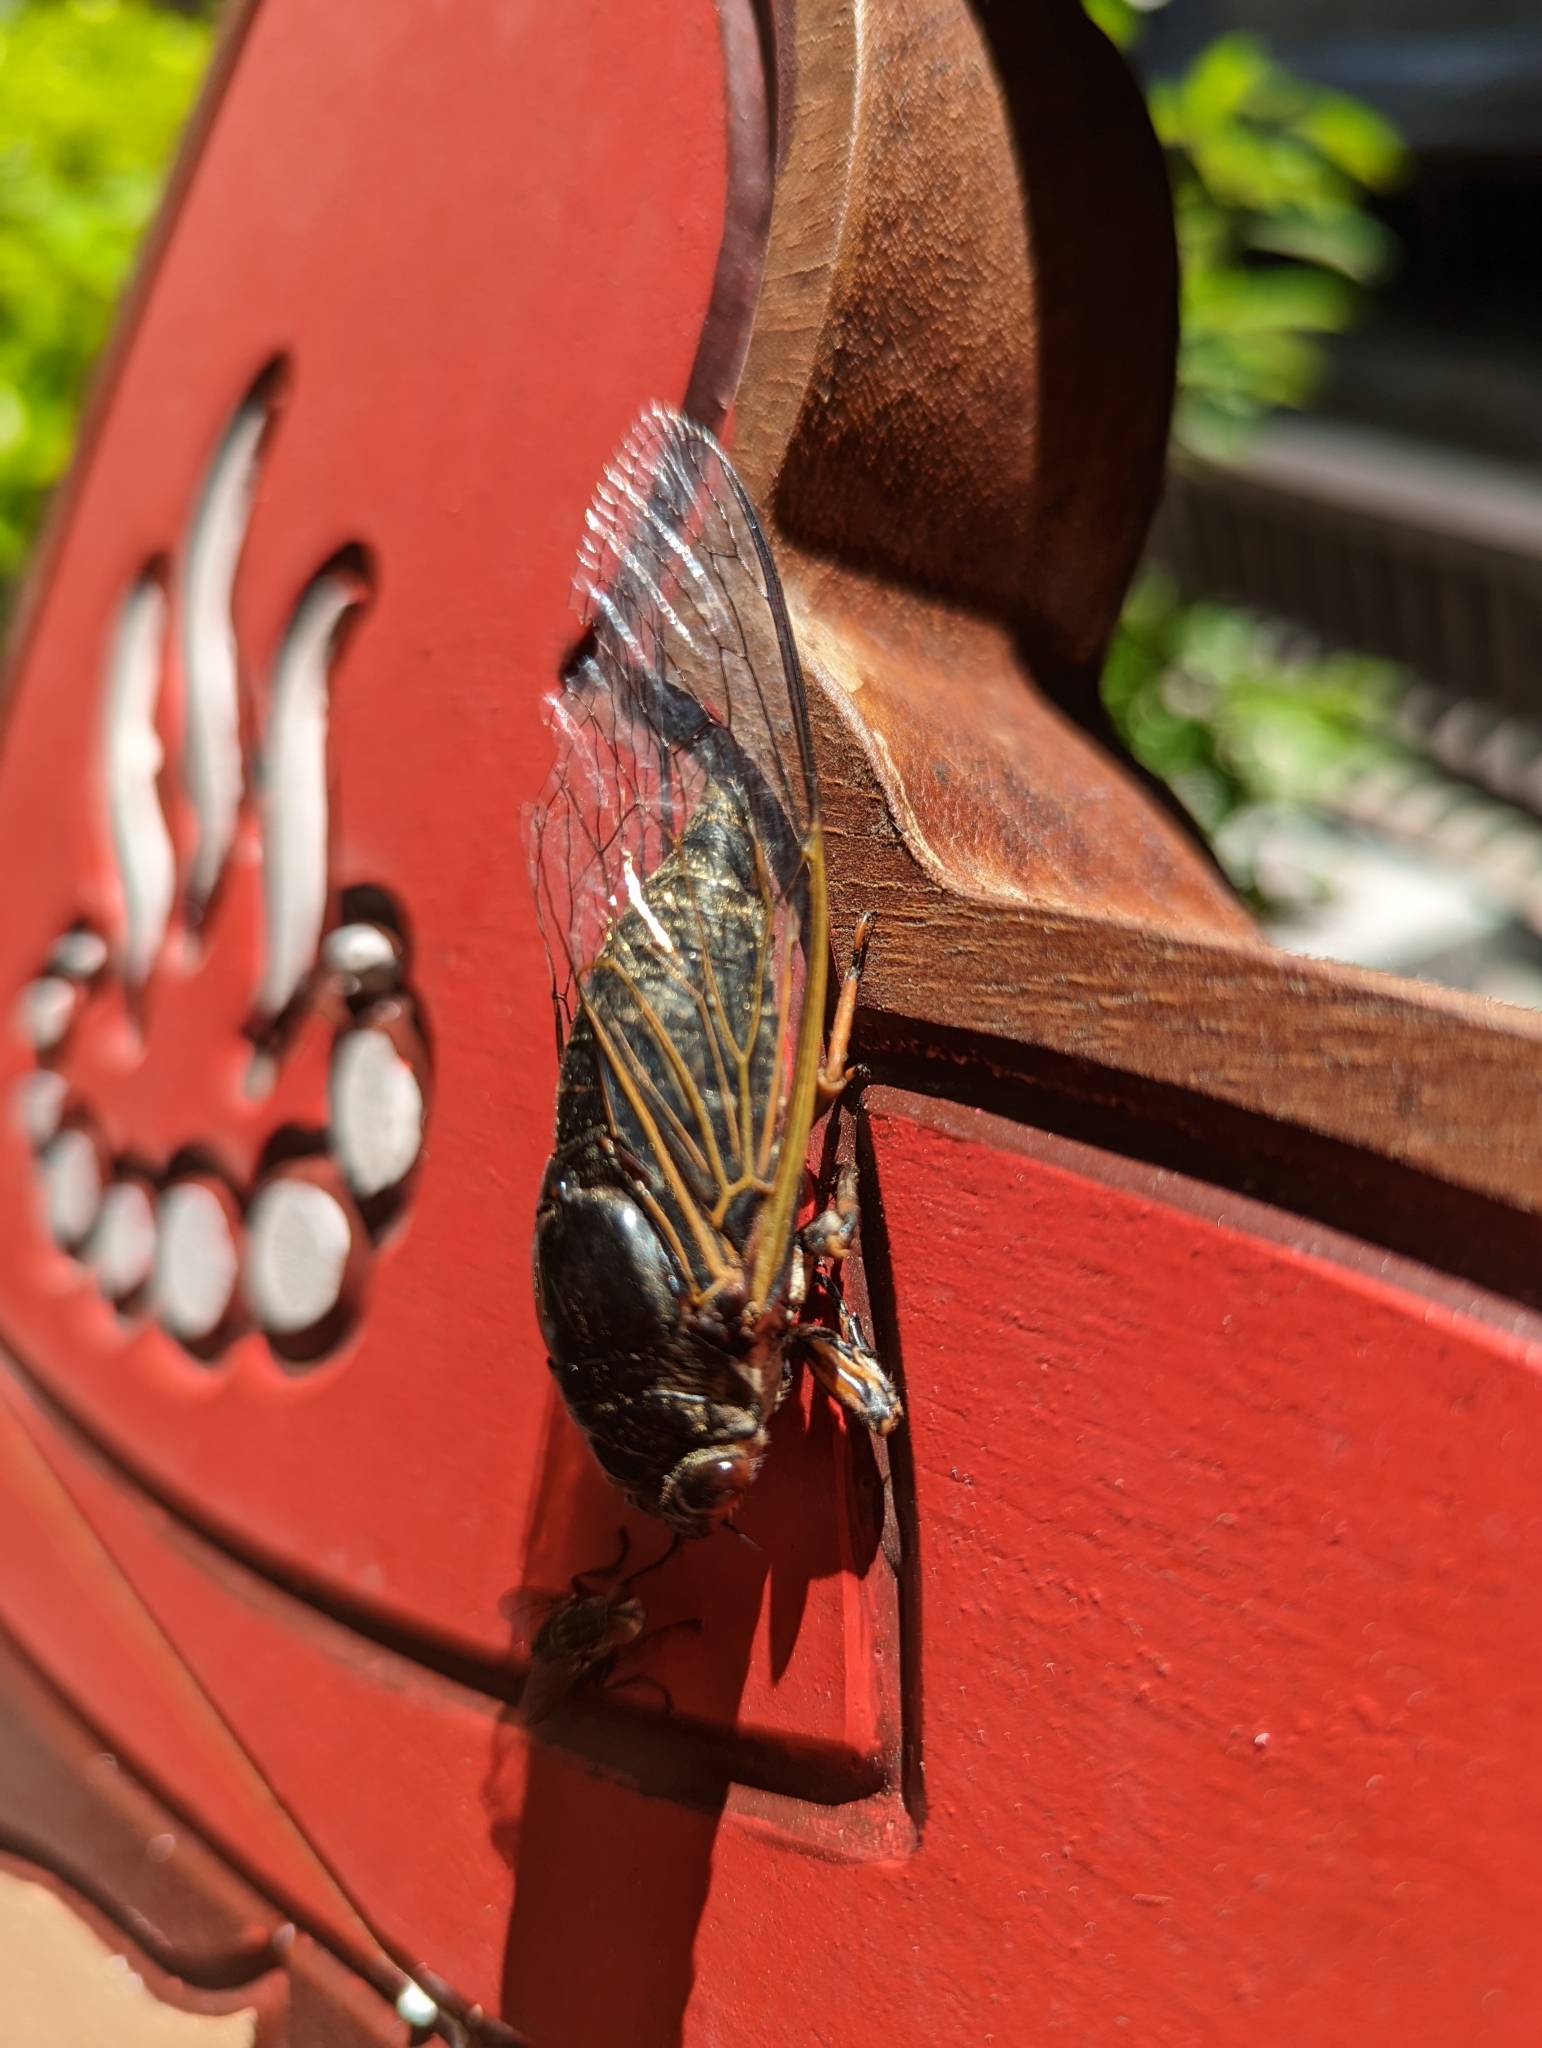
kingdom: Animalia
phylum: Arthropoda
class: Insecta
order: Hemiptera
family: Cicadidae
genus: Cryptotympana
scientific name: Cryptotympana takasagona
